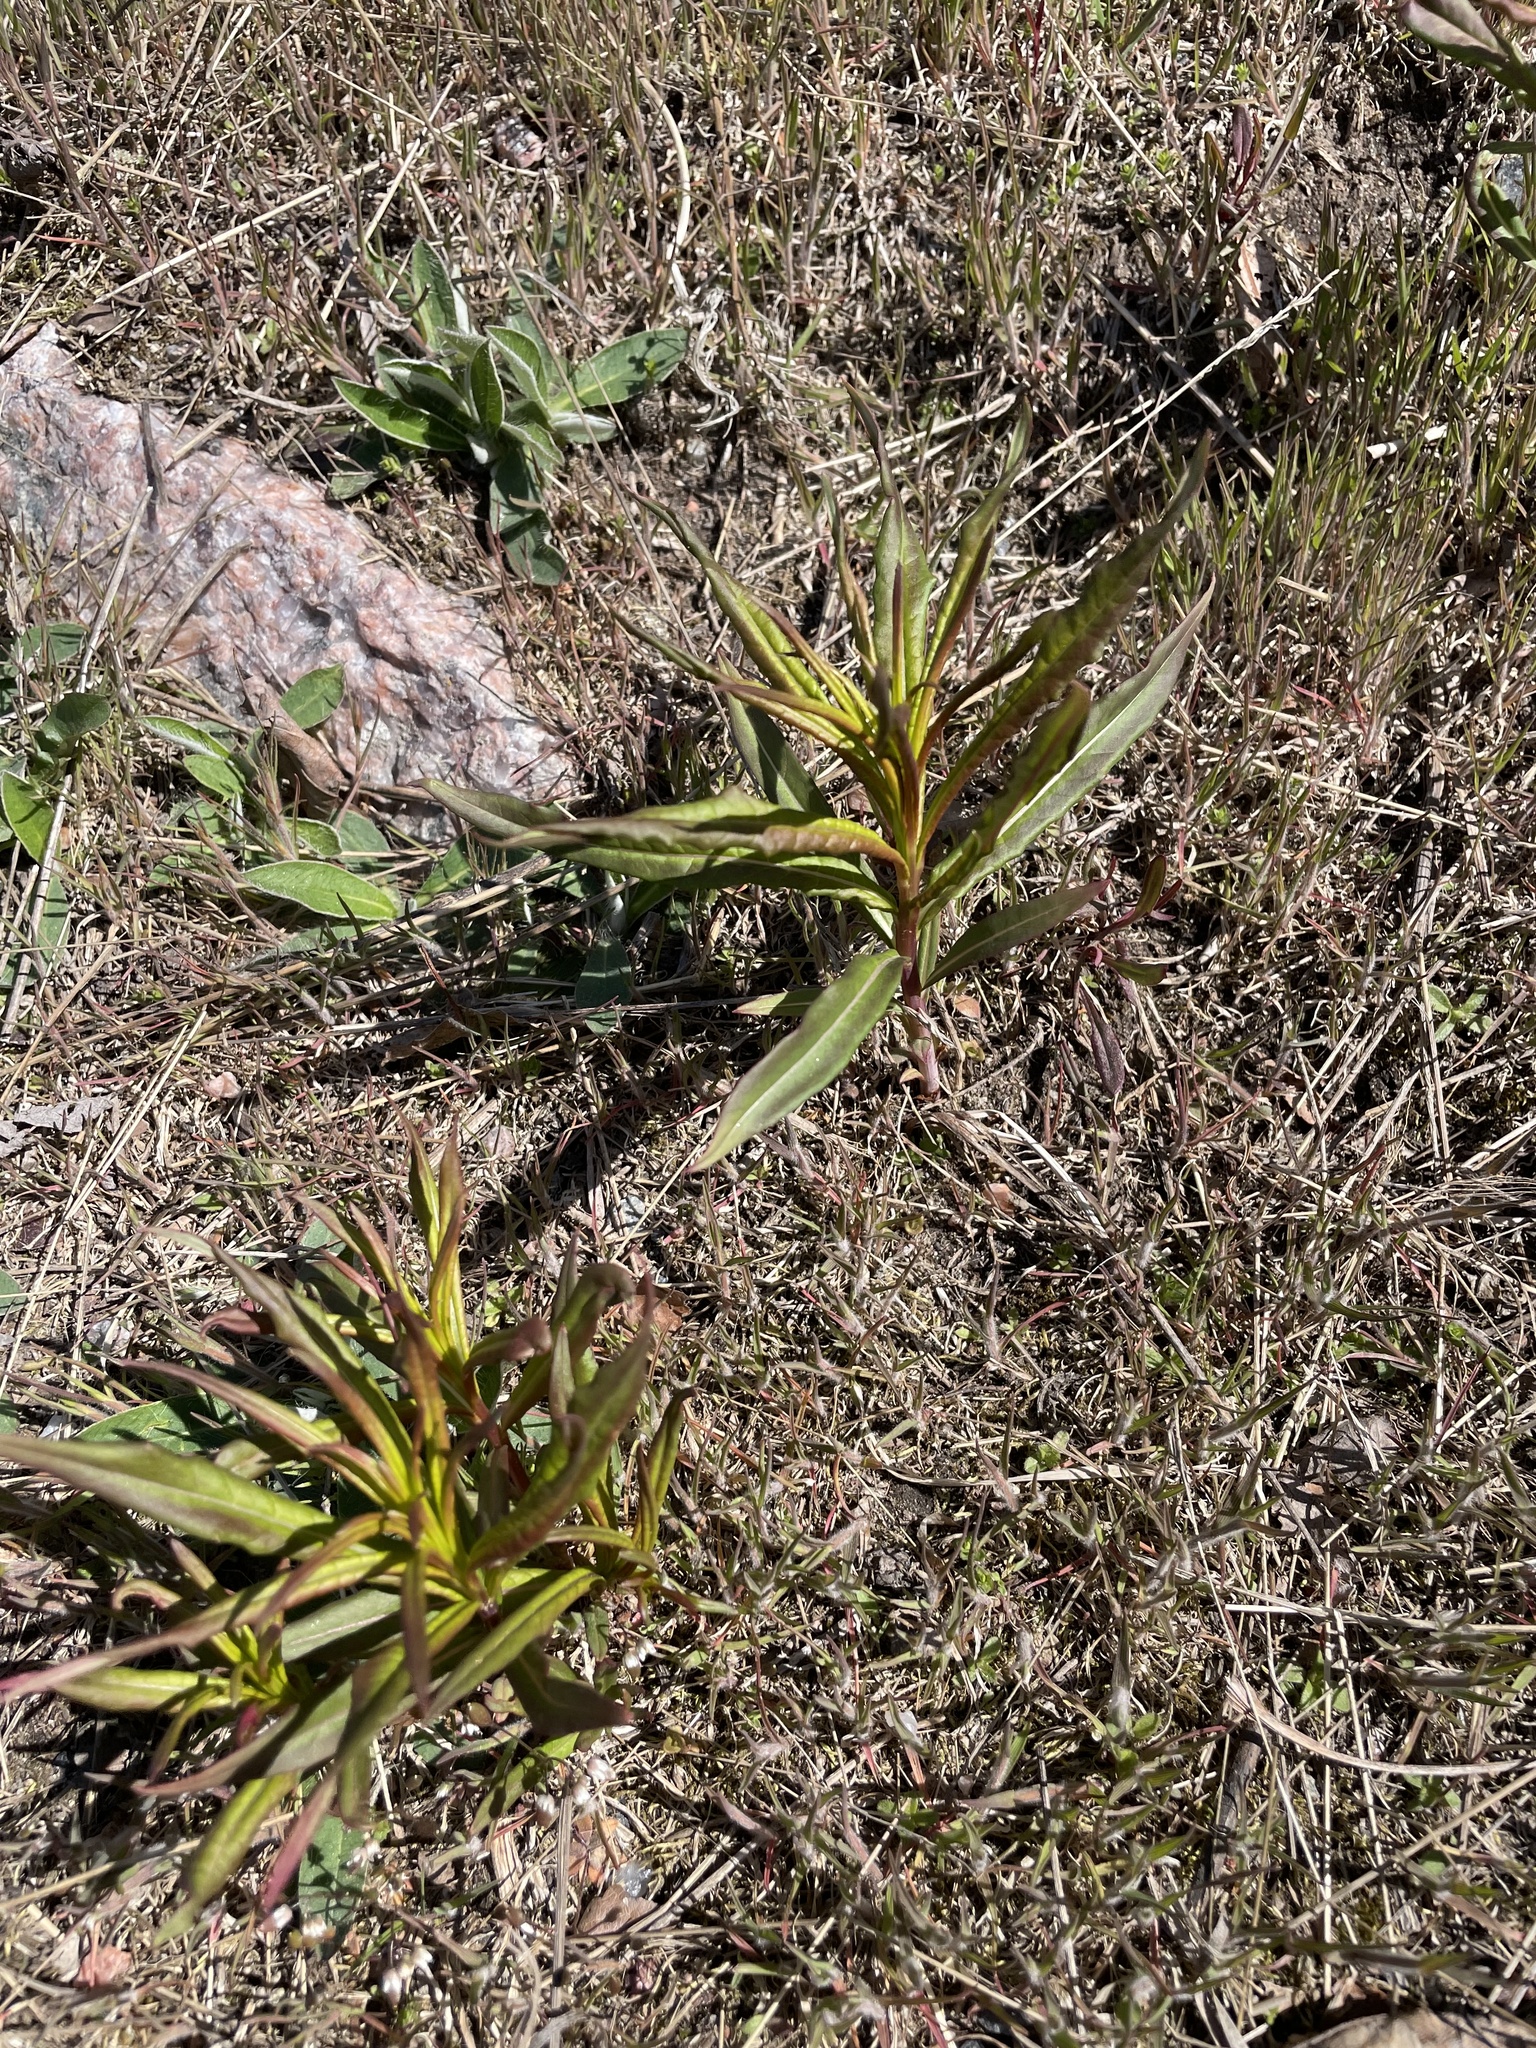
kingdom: Plantae
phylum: Tracheophyta
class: Magnoliopsida
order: Myrtales
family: Onagraceae
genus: Chamaenerion
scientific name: Chamaenerion angustifolium
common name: Fireweed
